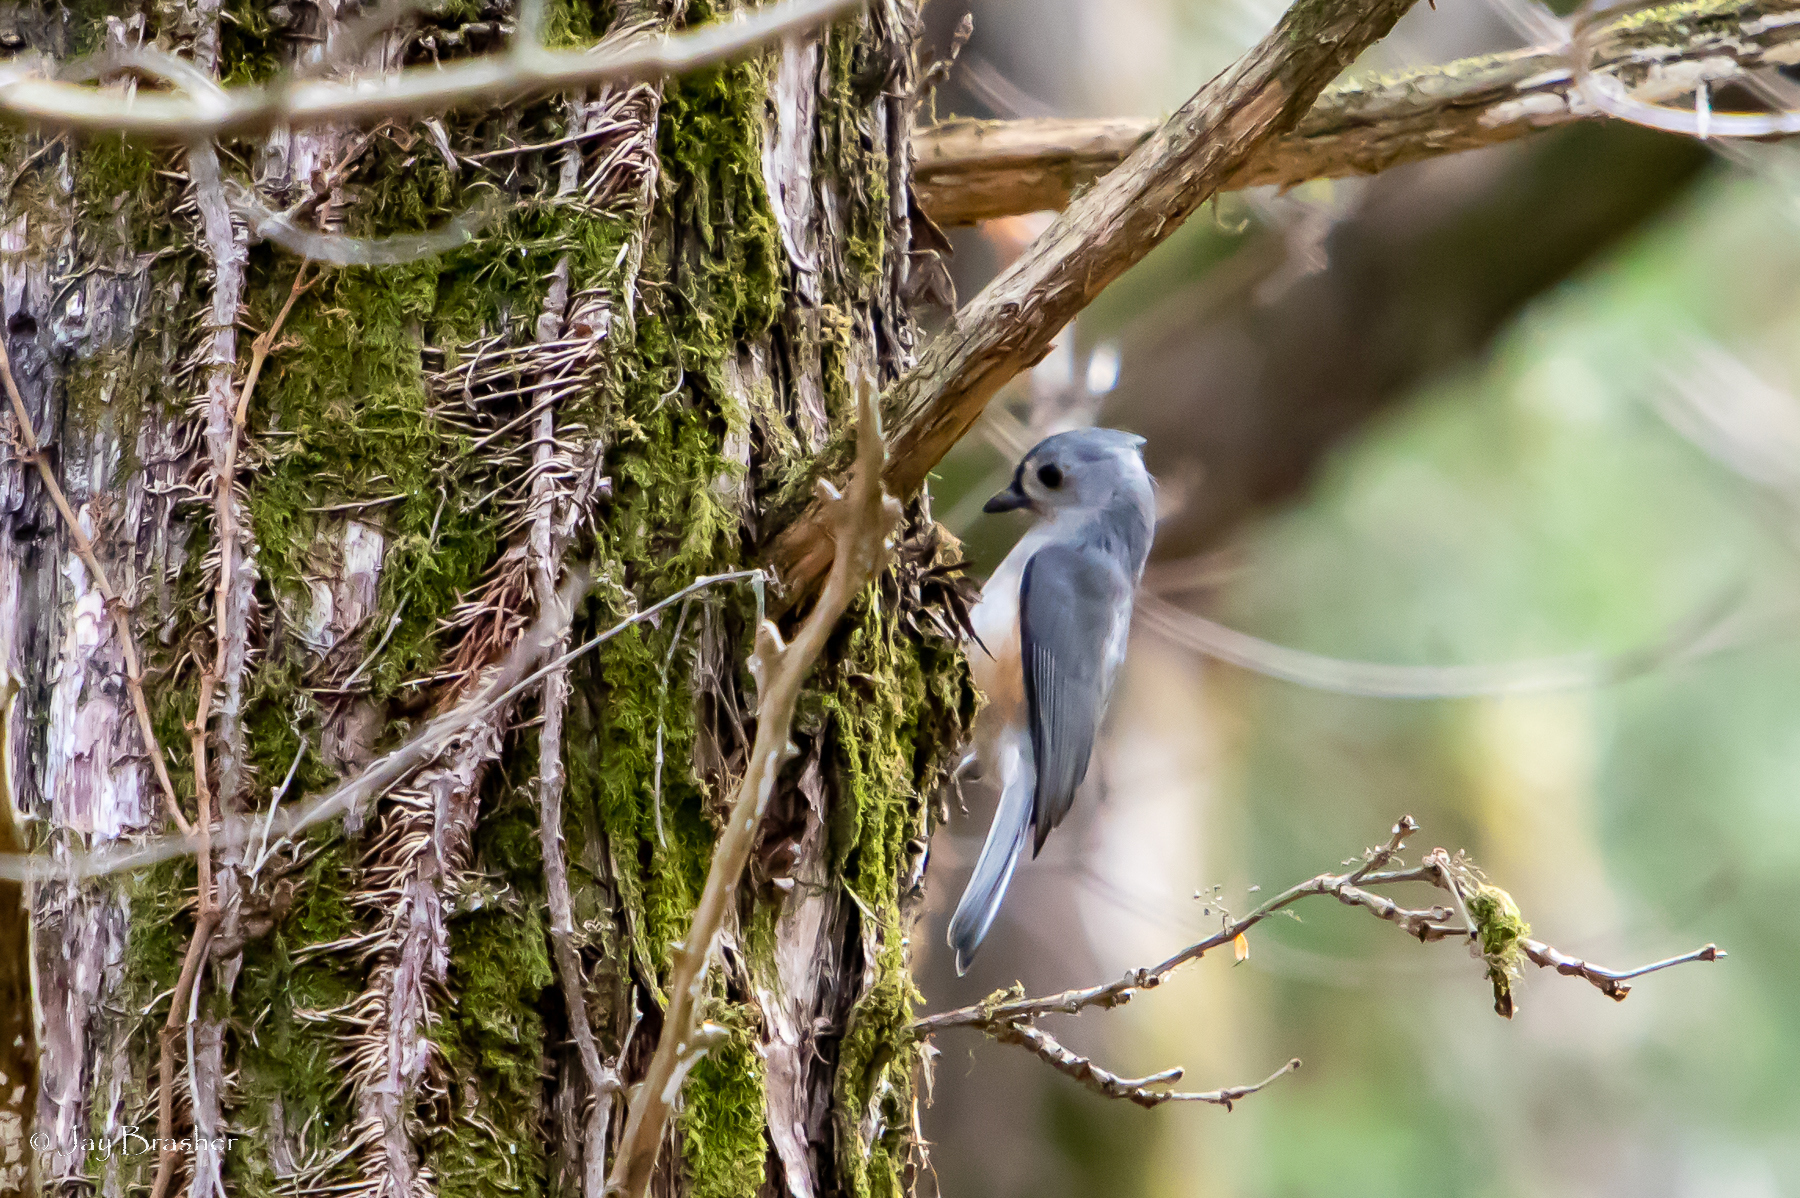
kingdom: Animalia
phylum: Chordata
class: Aves
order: Passeriformes
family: Paridae
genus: Baeolophus
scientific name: Baeolophus bicolor
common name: Tufted titmouse
